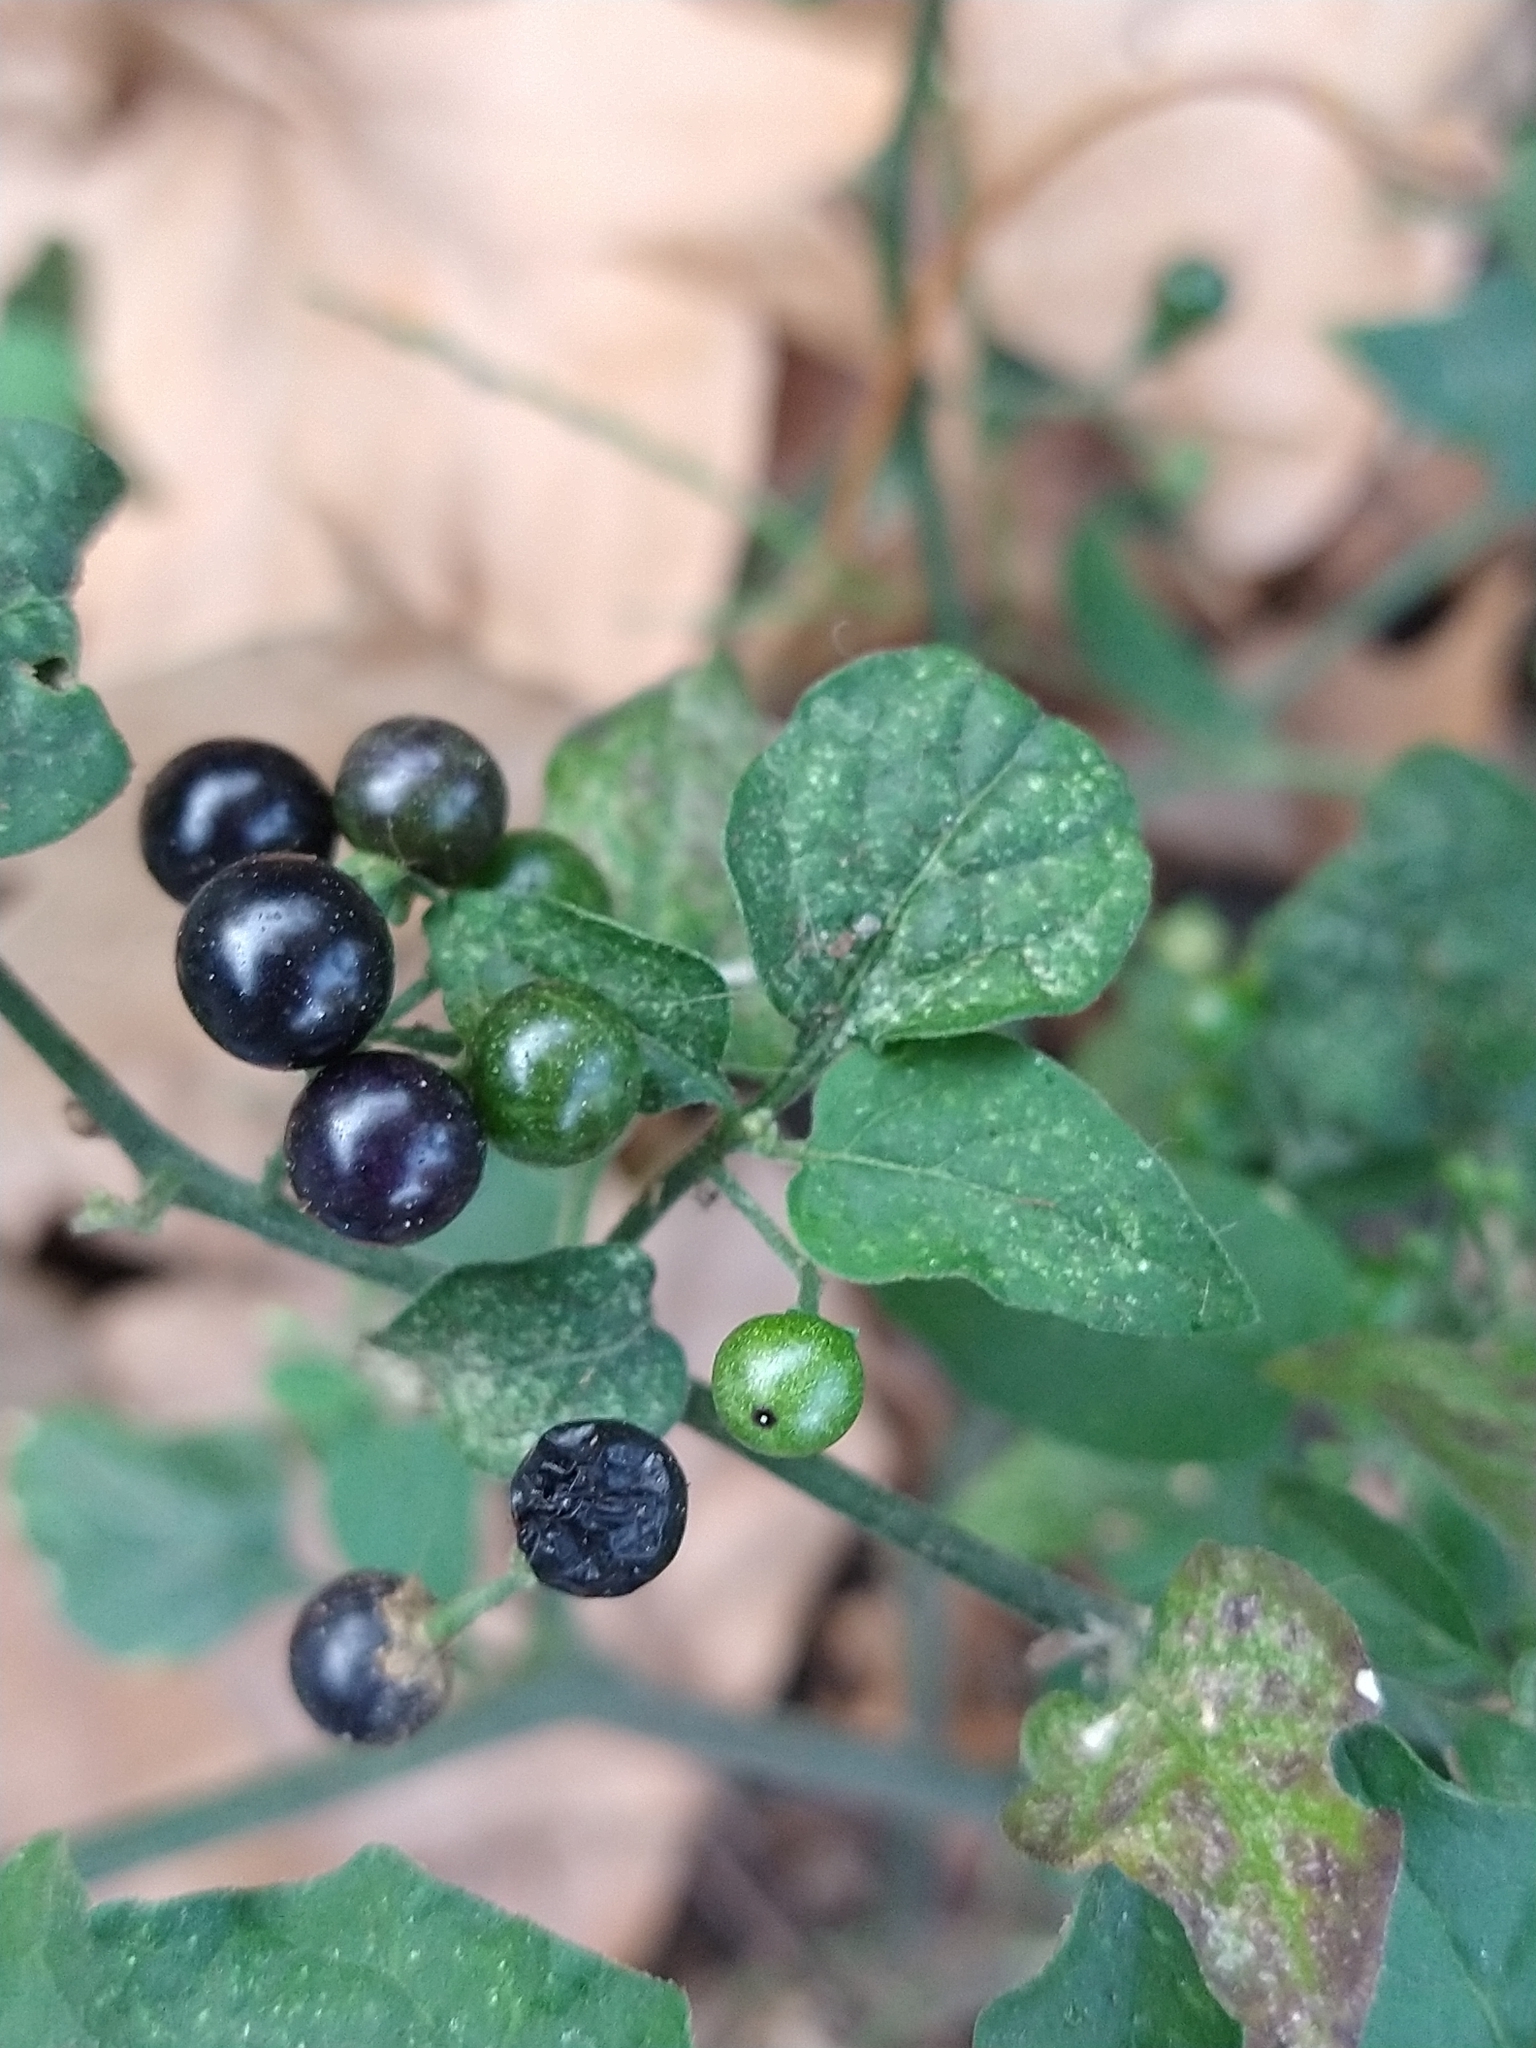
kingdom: Plantae
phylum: Tracheophyta
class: Magnoliopsida
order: Solanales
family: Solanaceae
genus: Solanum
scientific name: Solanum americanum
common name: American black nightshade
